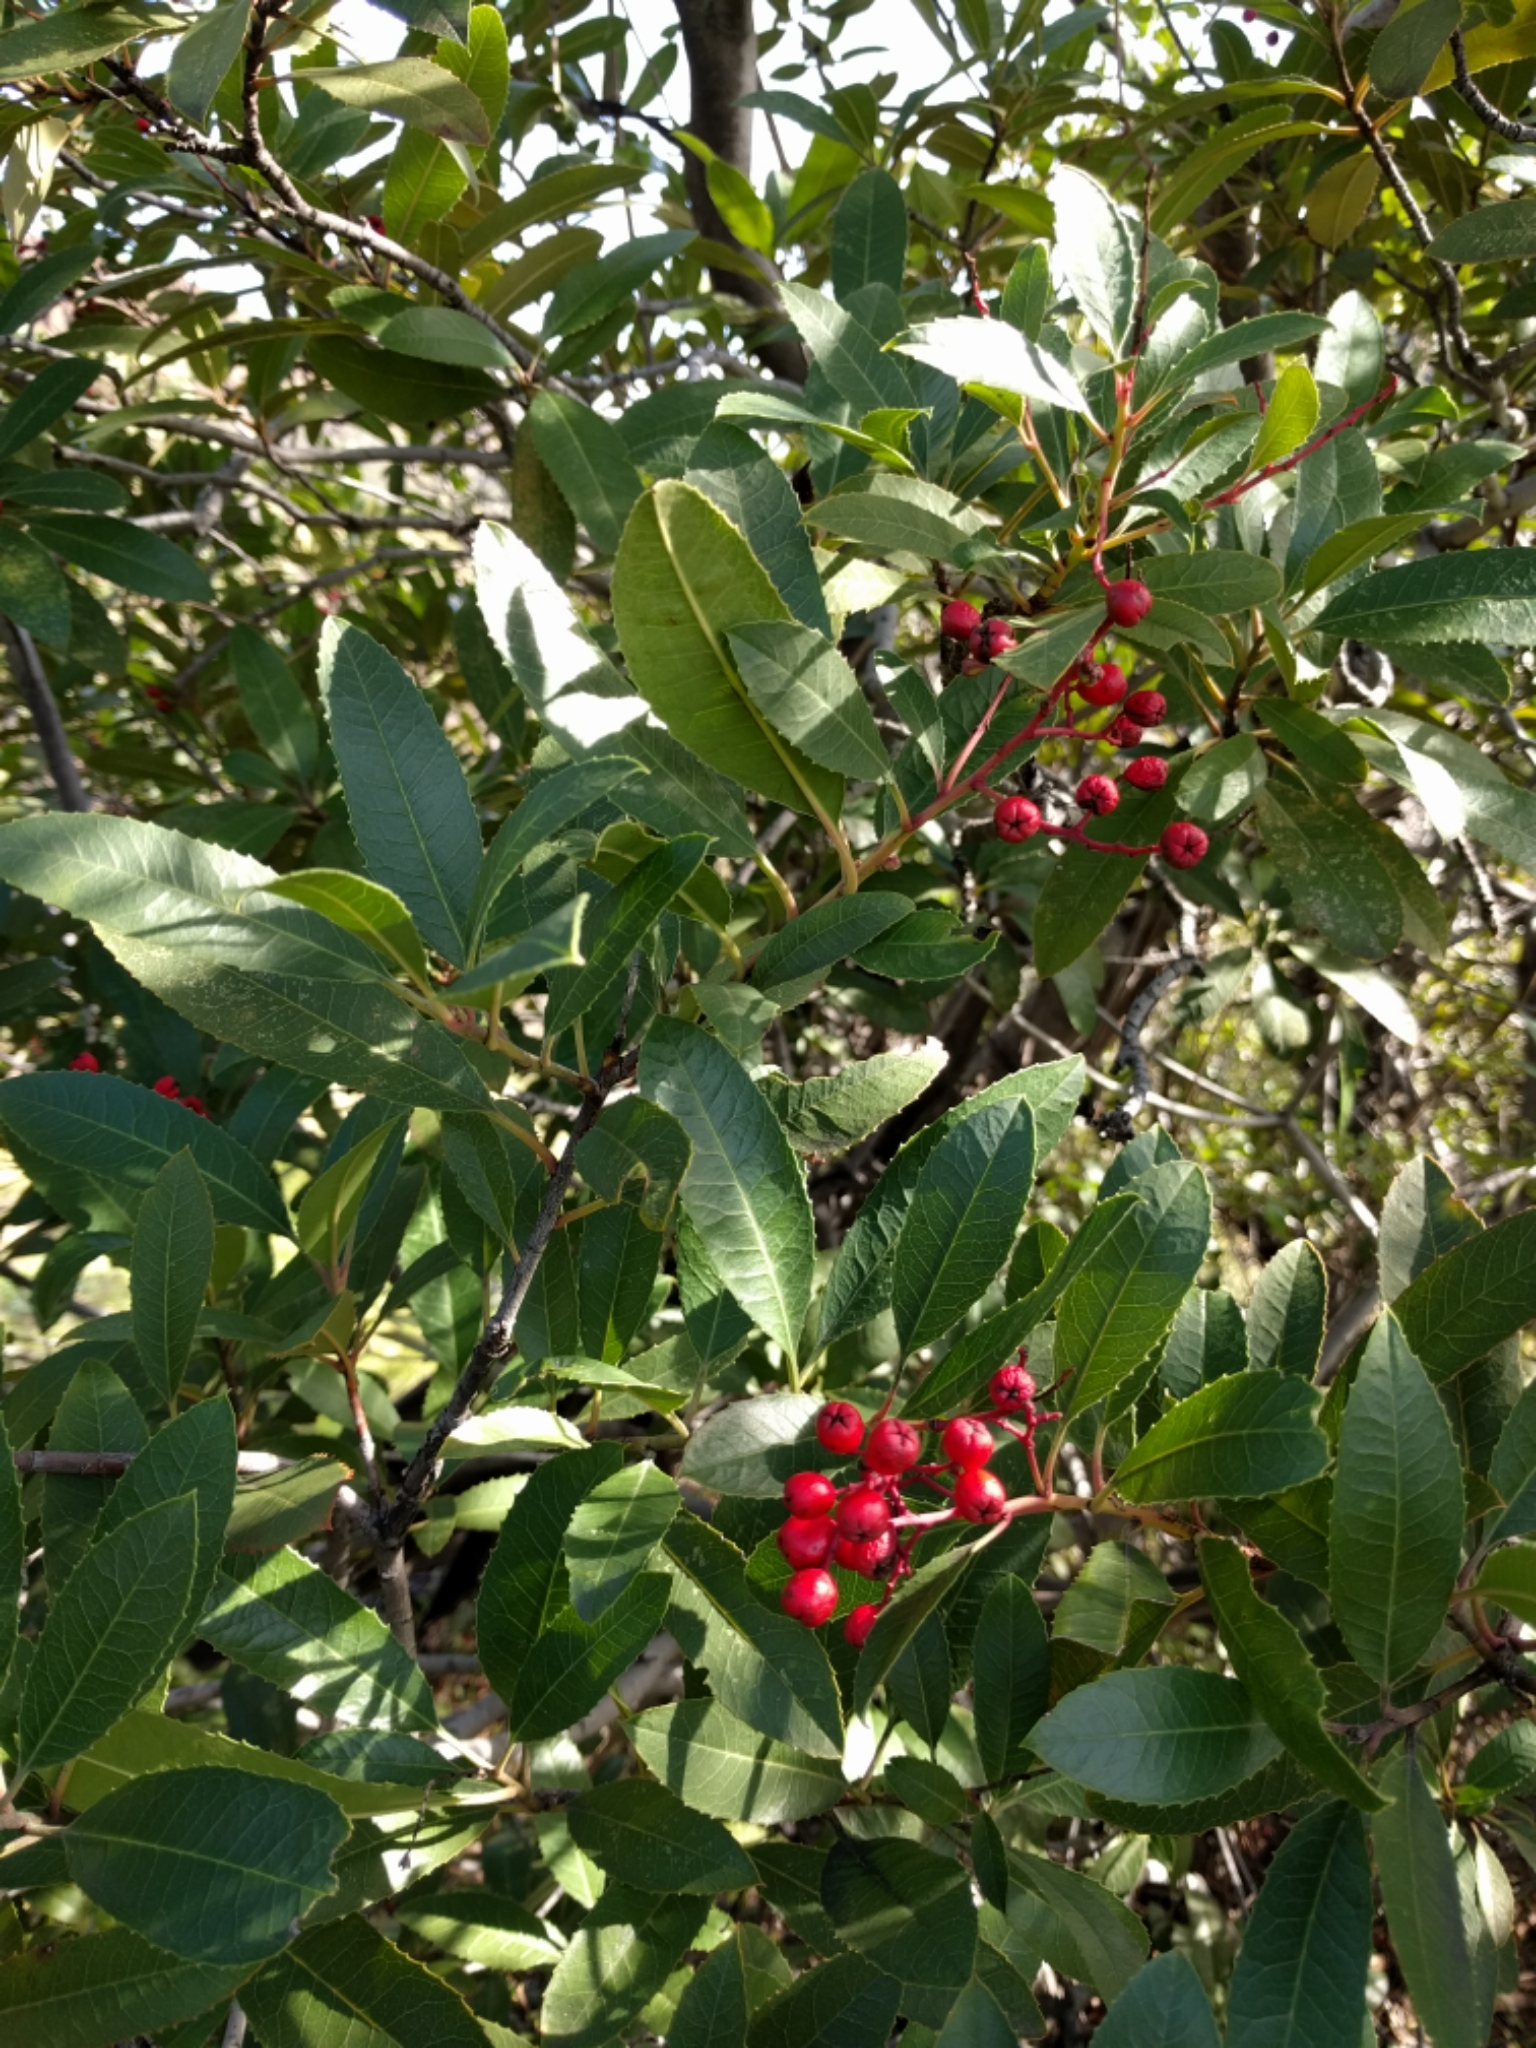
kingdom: Plantae
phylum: Tracheophyta
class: Magnoliopsida
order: Rosales
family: Rosaceae
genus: Heteromeles
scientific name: Heteromeles arbutifolia
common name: California-holly
